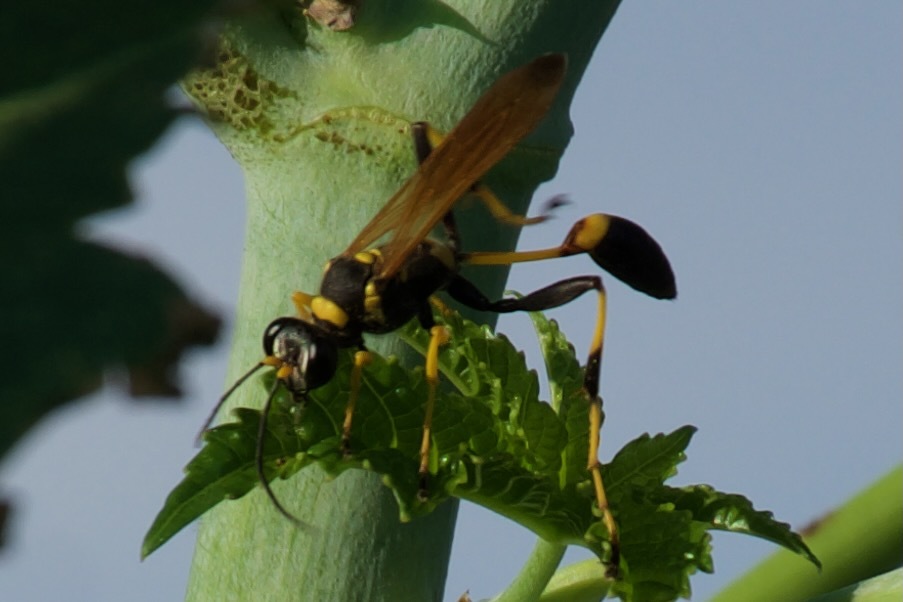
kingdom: Animalia
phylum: Arthropoda
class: Insecta
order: Hymenoptera
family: Sphecidae
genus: Sceliphron
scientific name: Sceliphron caementarium
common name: Mud dauber
